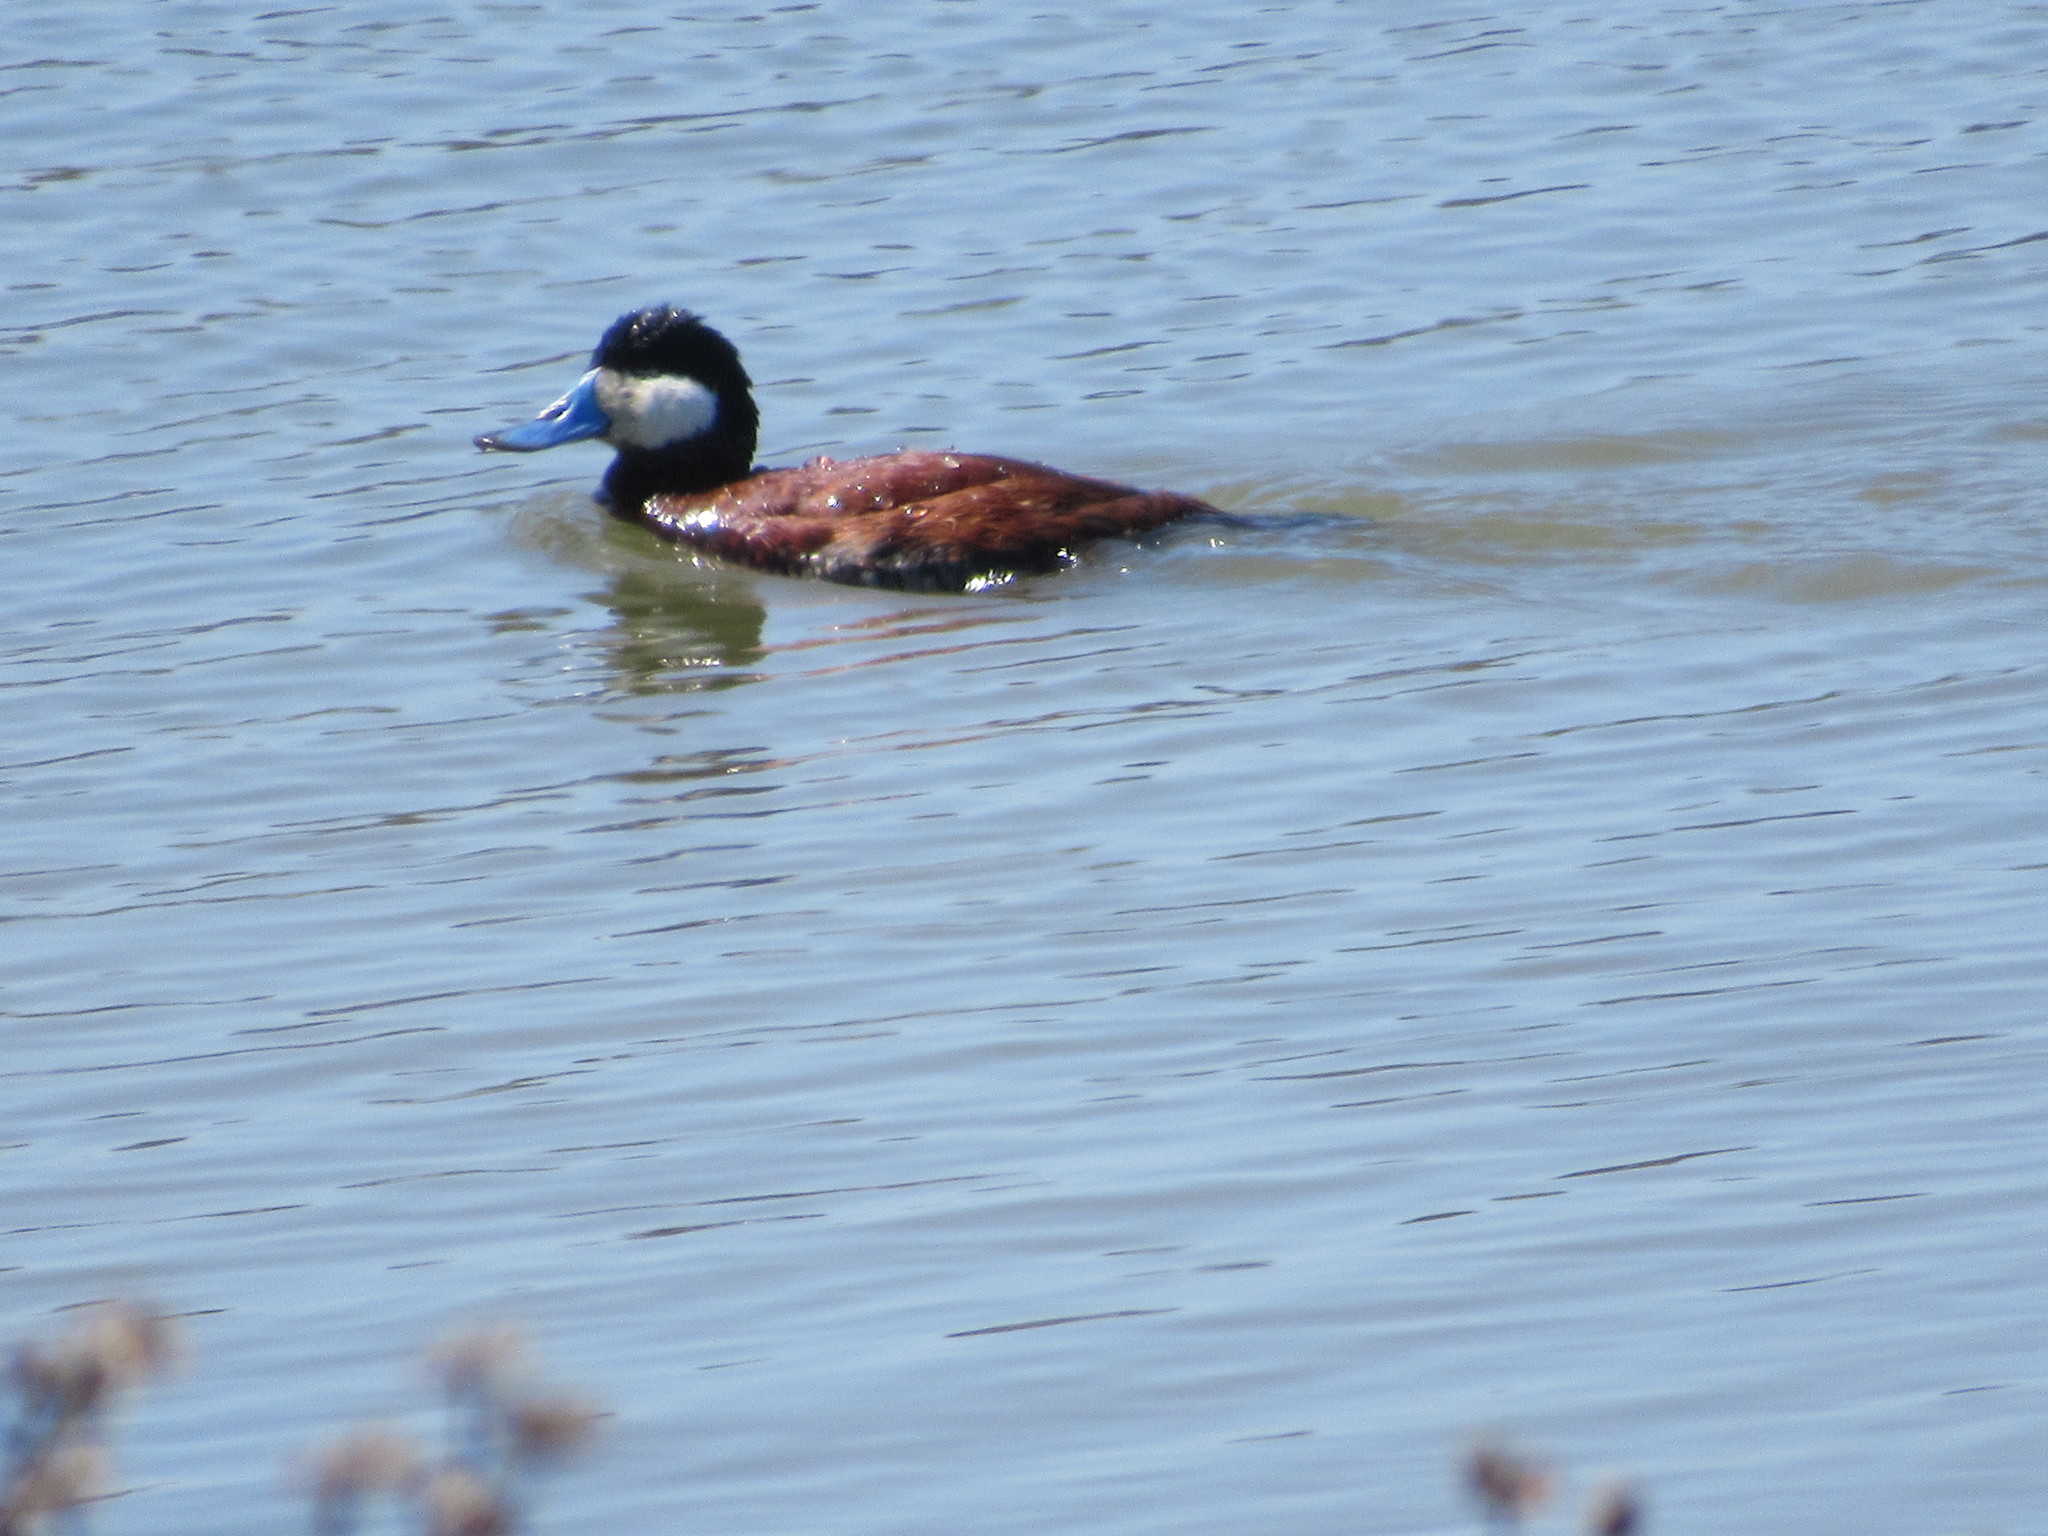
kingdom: Animalia
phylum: Chordata
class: Aves
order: Anseriformes
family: Anatidae
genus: Oxyura
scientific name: Oxyura jamaicensis
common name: Ruddy duck
